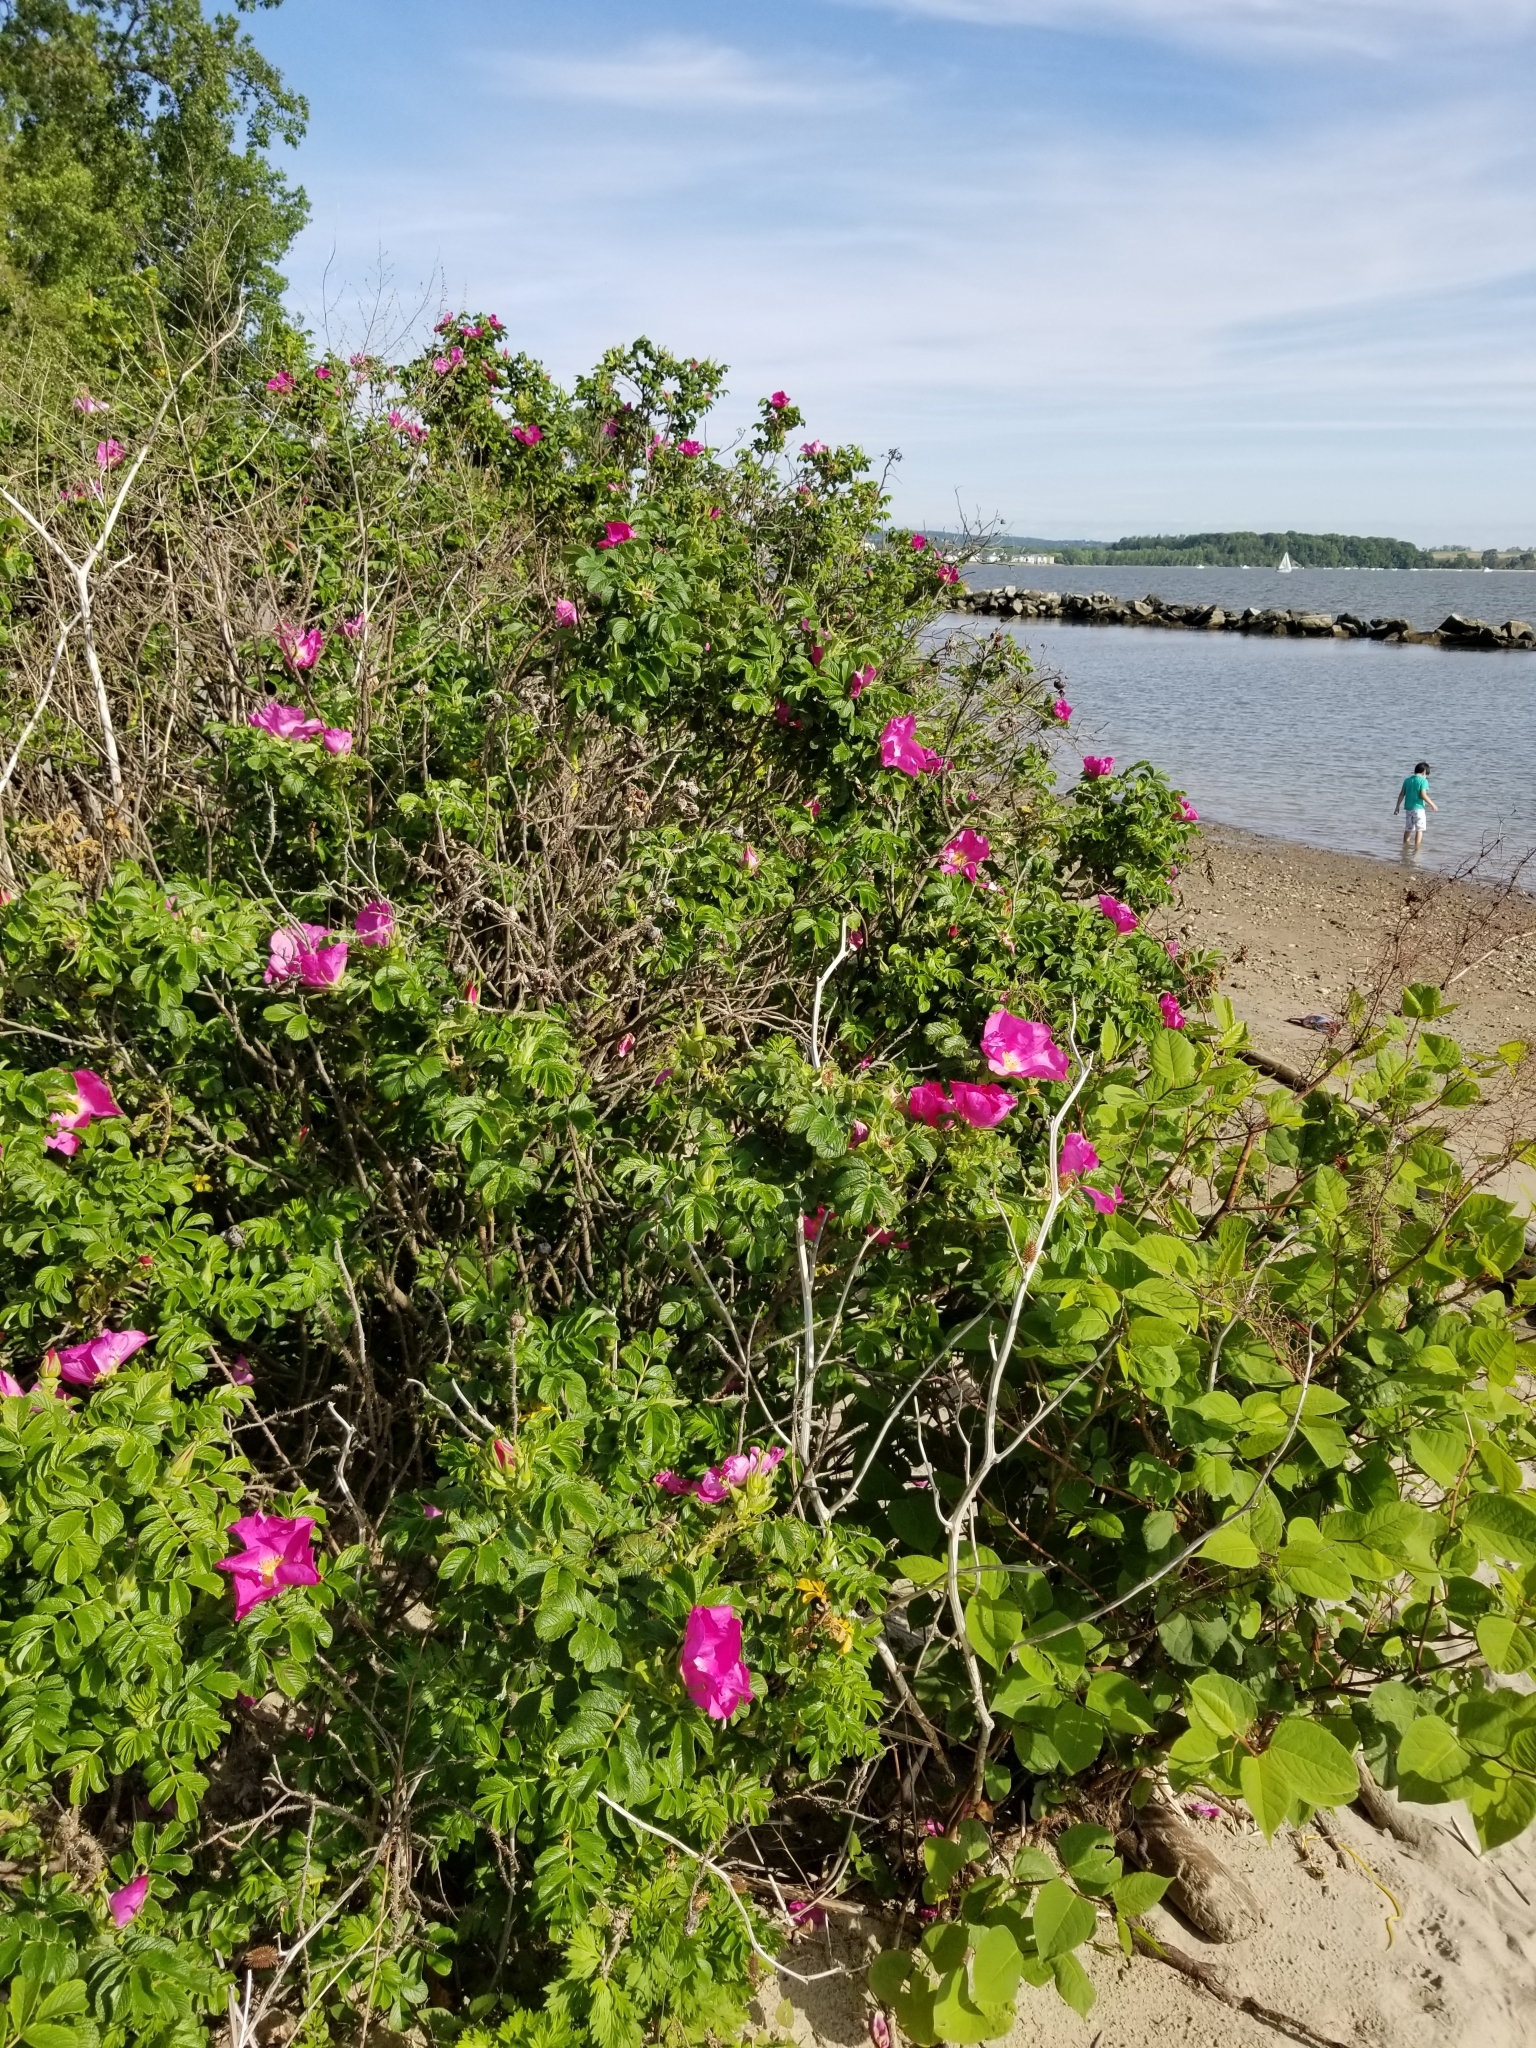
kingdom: Plantae
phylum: Tracheophyta
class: Magnoliopsida
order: Rosales
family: Rosaceae
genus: Rosa
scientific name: Rosa rugosa
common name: Japanese rose
